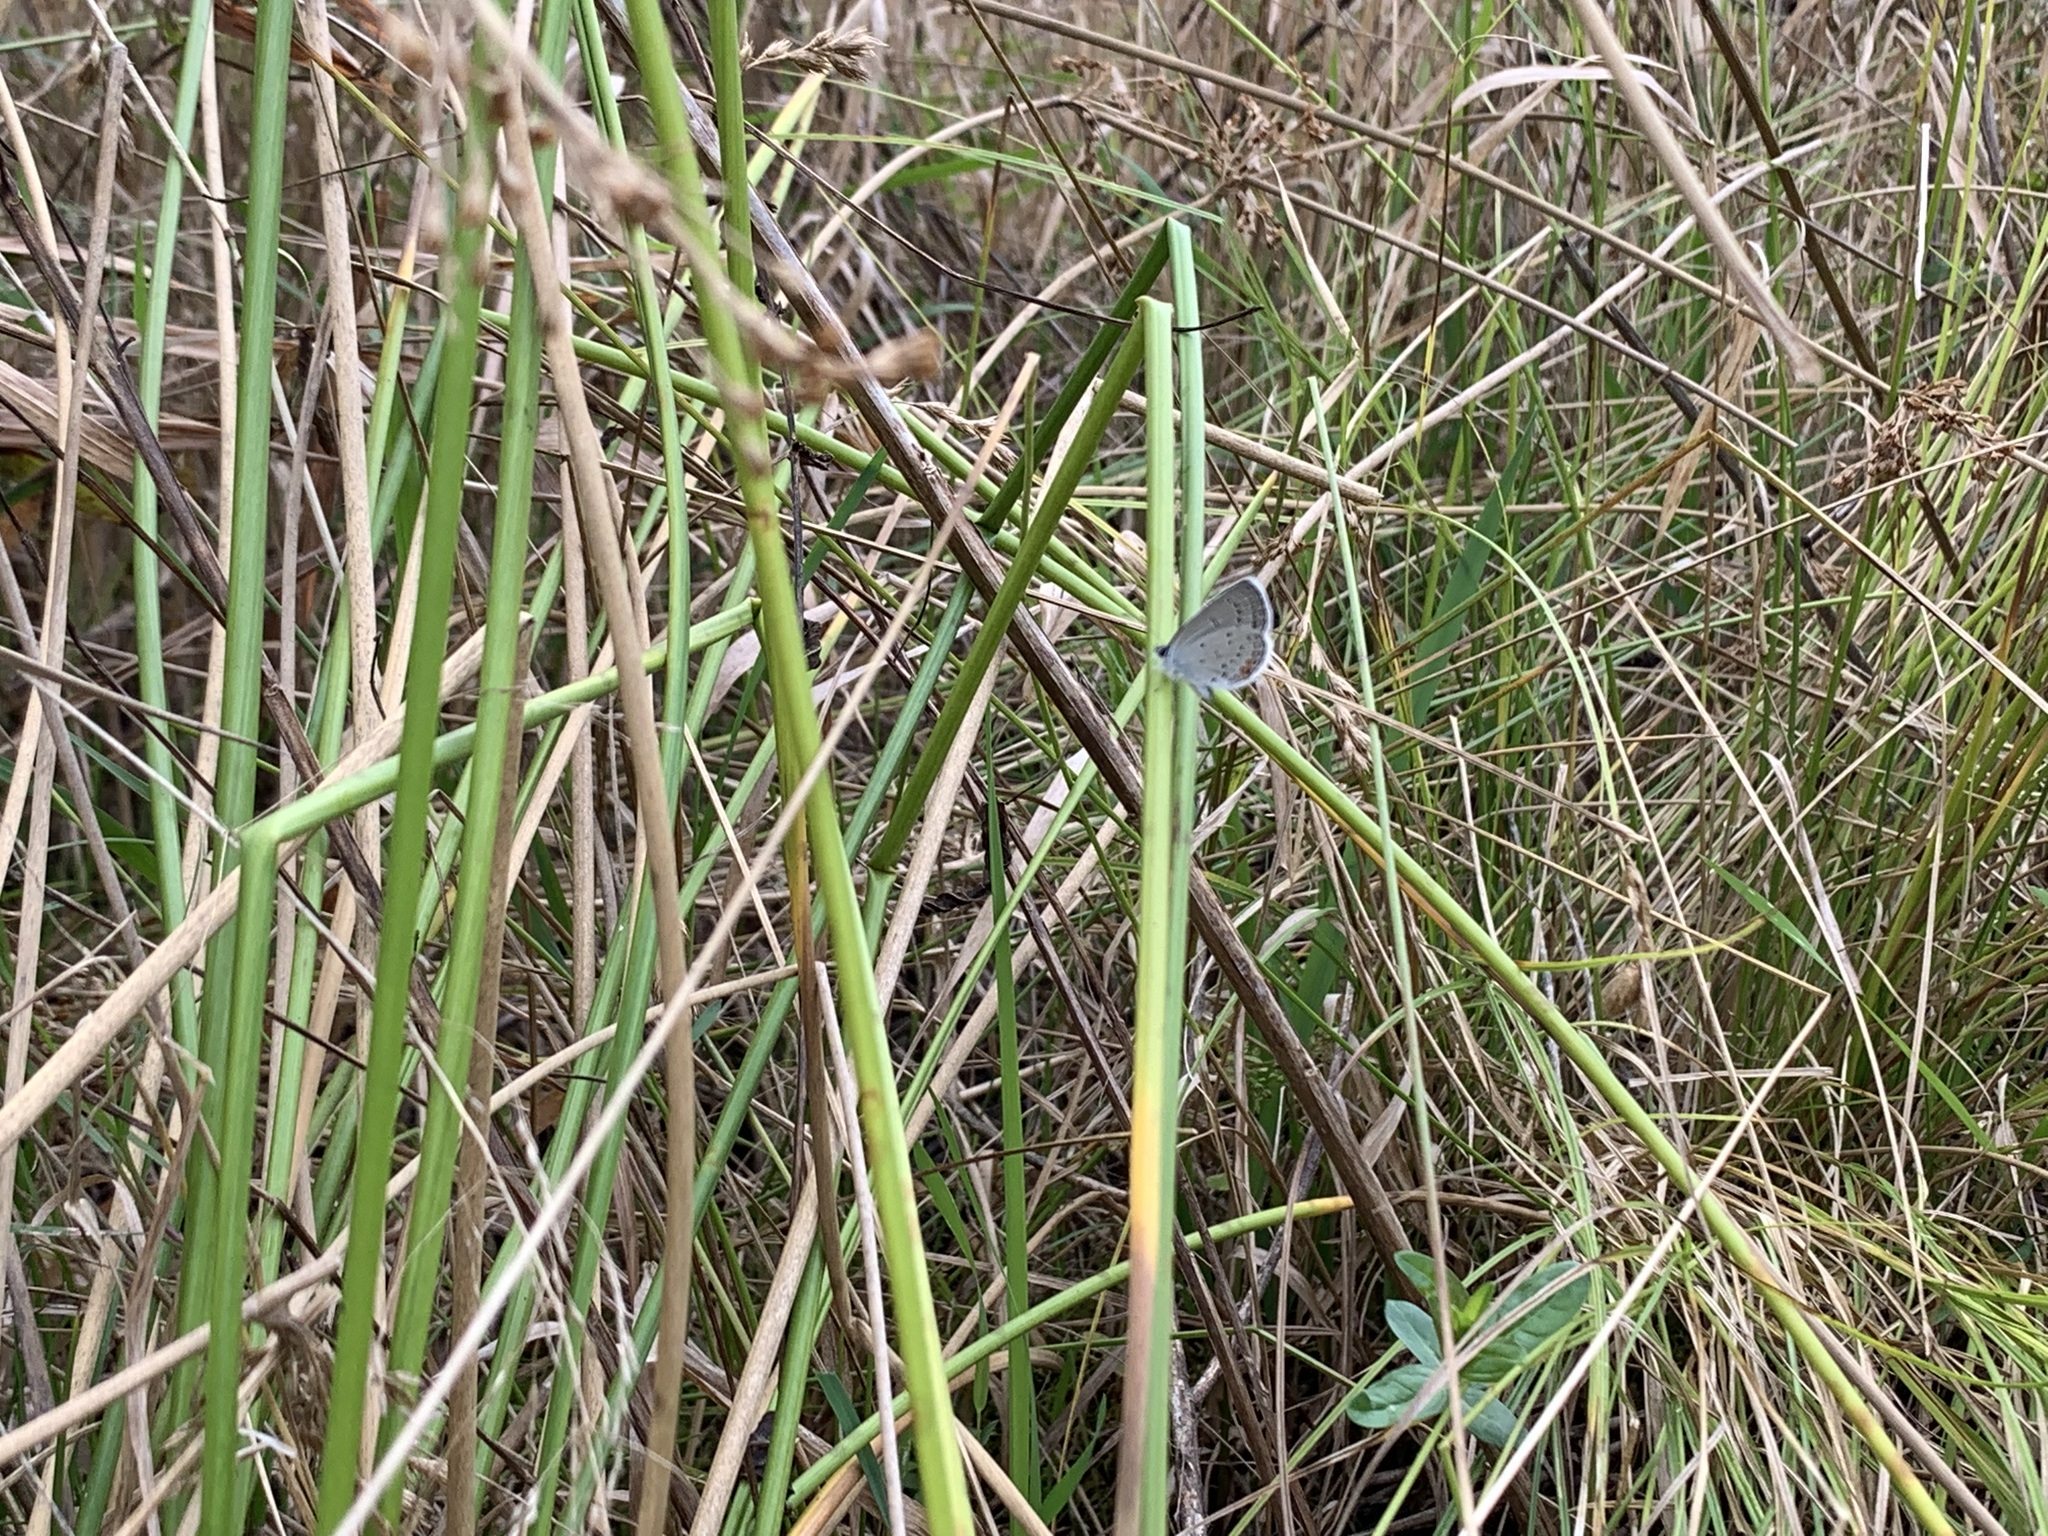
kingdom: Animalia
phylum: Arthropoda
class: Insecta
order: Lepidoptera
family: Lycaenidae
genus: Elkalyce
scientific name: Elkalyce comyntas
